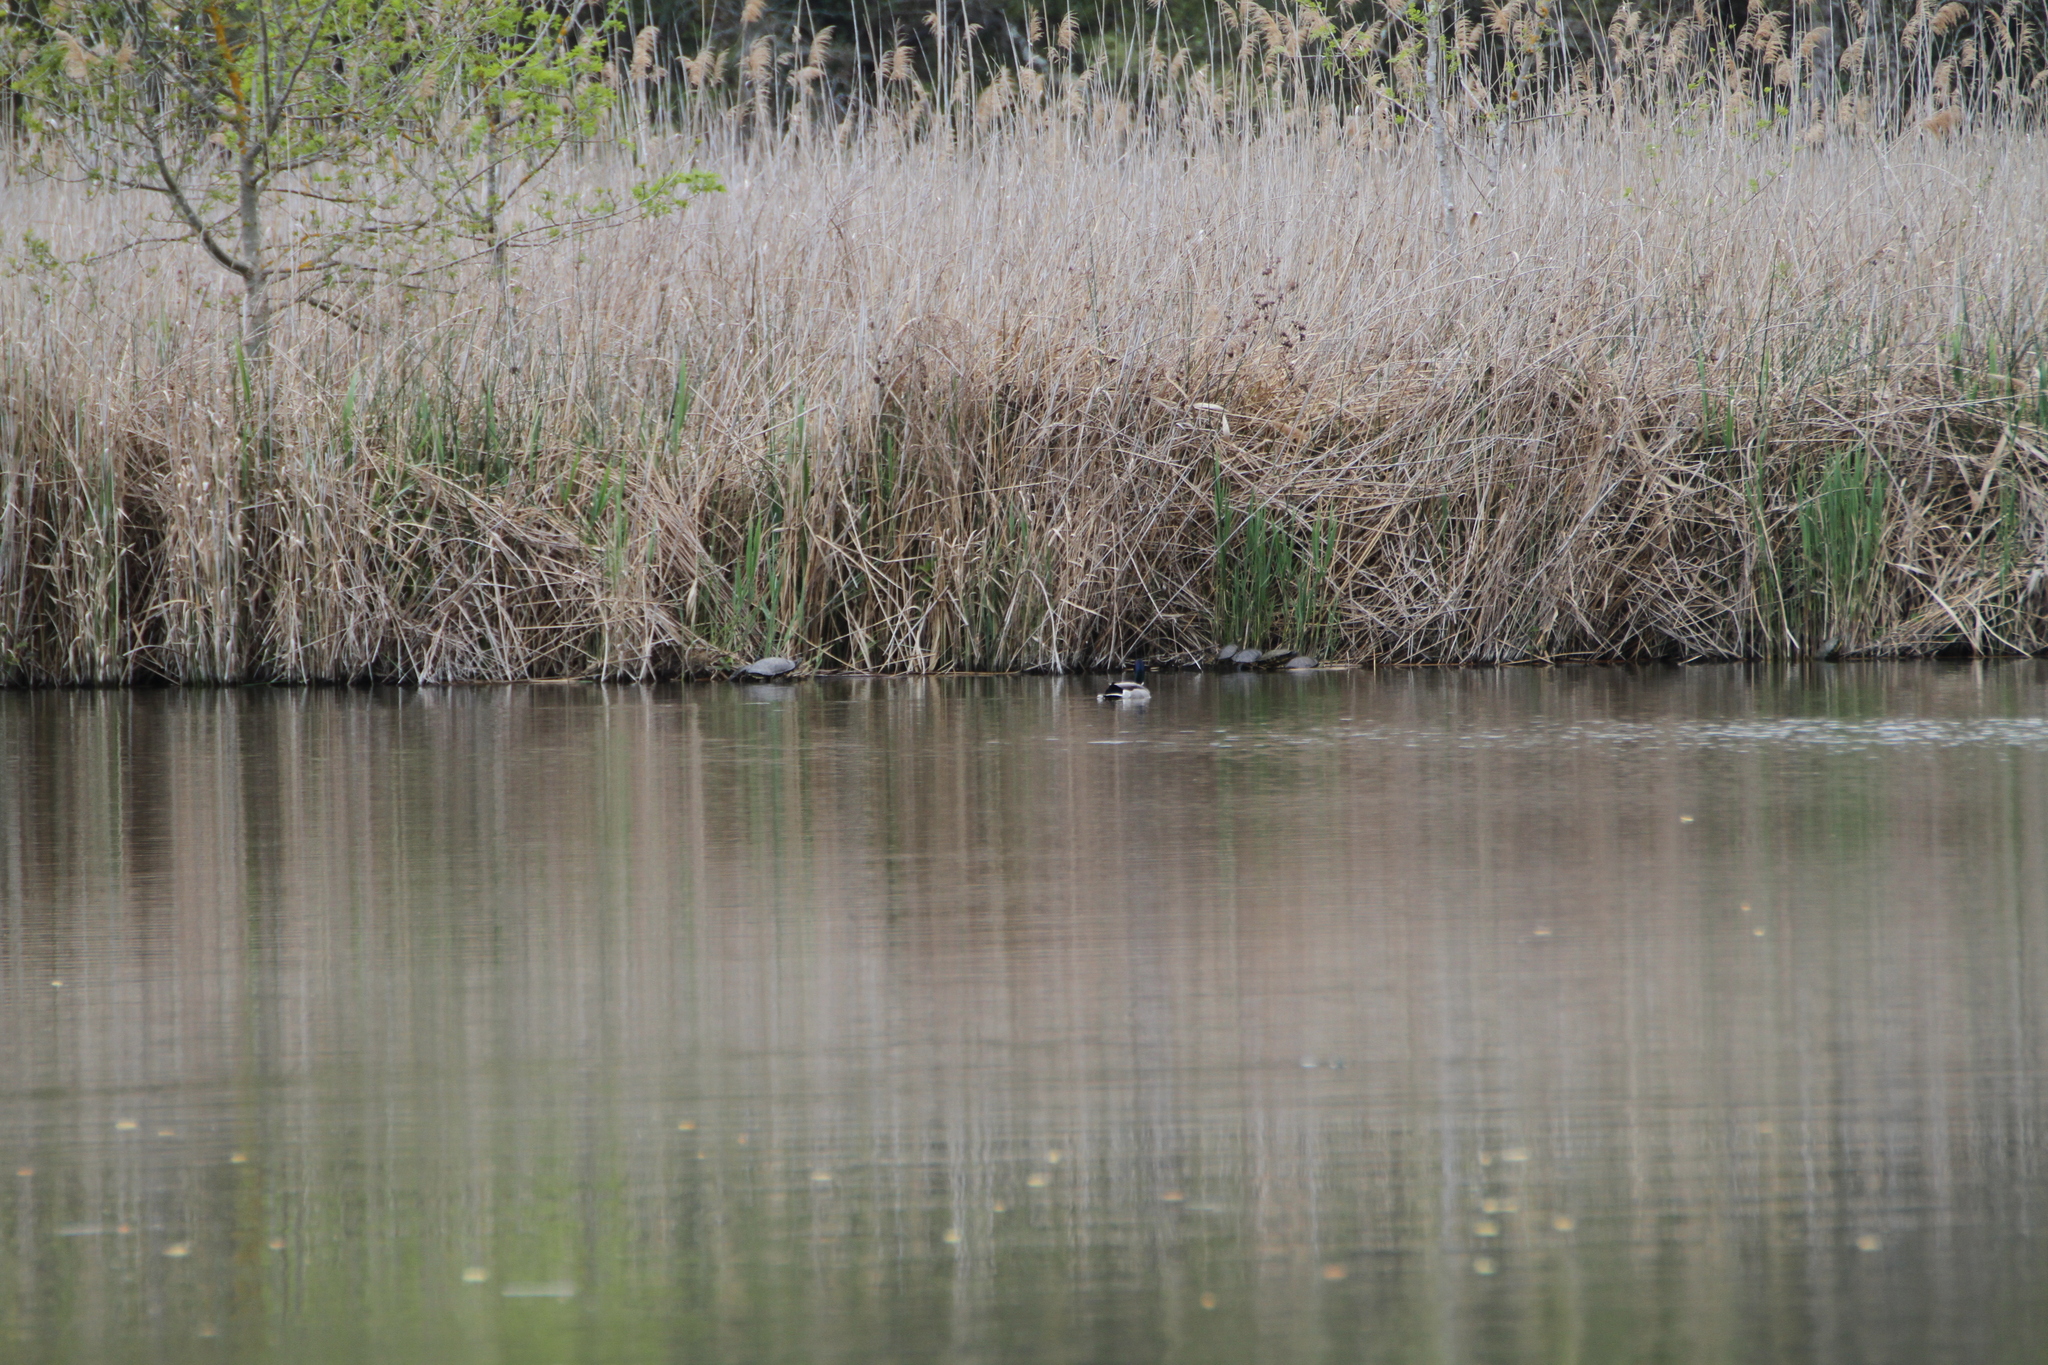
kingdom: Animalia
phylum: Chordata
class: Testudines
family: Emydidae
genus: Trachemys
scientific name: Trachemys scripta
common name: Slider
